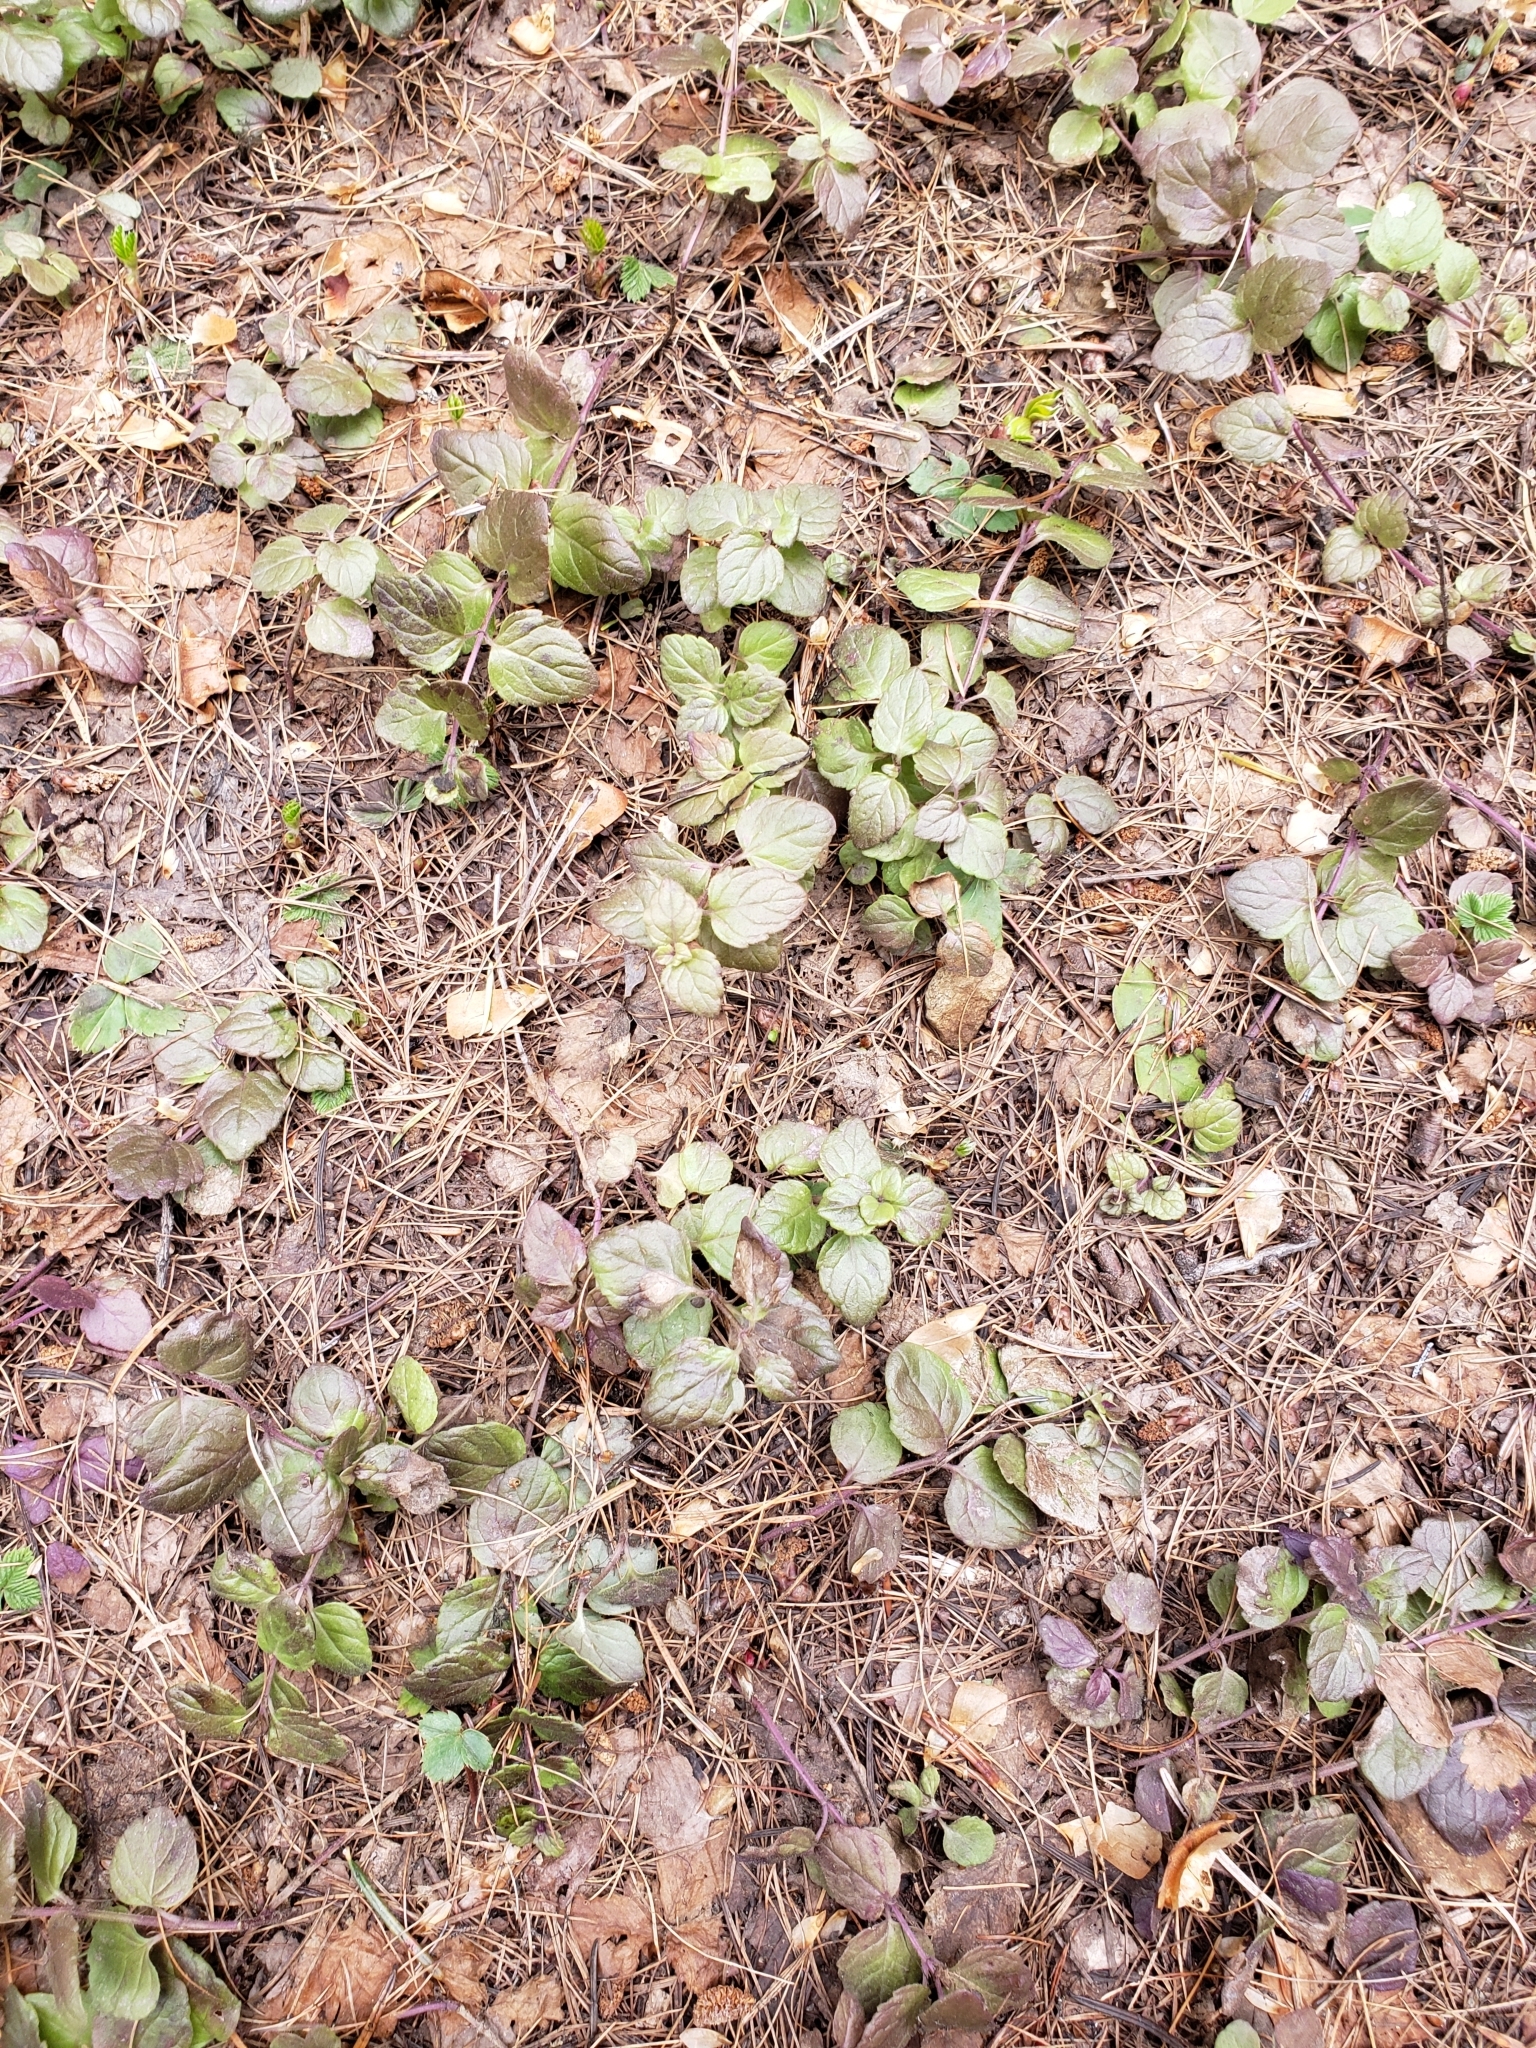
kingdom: Plantae
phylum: Tracheophyta
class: Magnoliopsida
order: Lamiales
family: Lamiaceae
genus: Micromeria
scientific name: Micromeria douglasii
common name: Yerba buena
